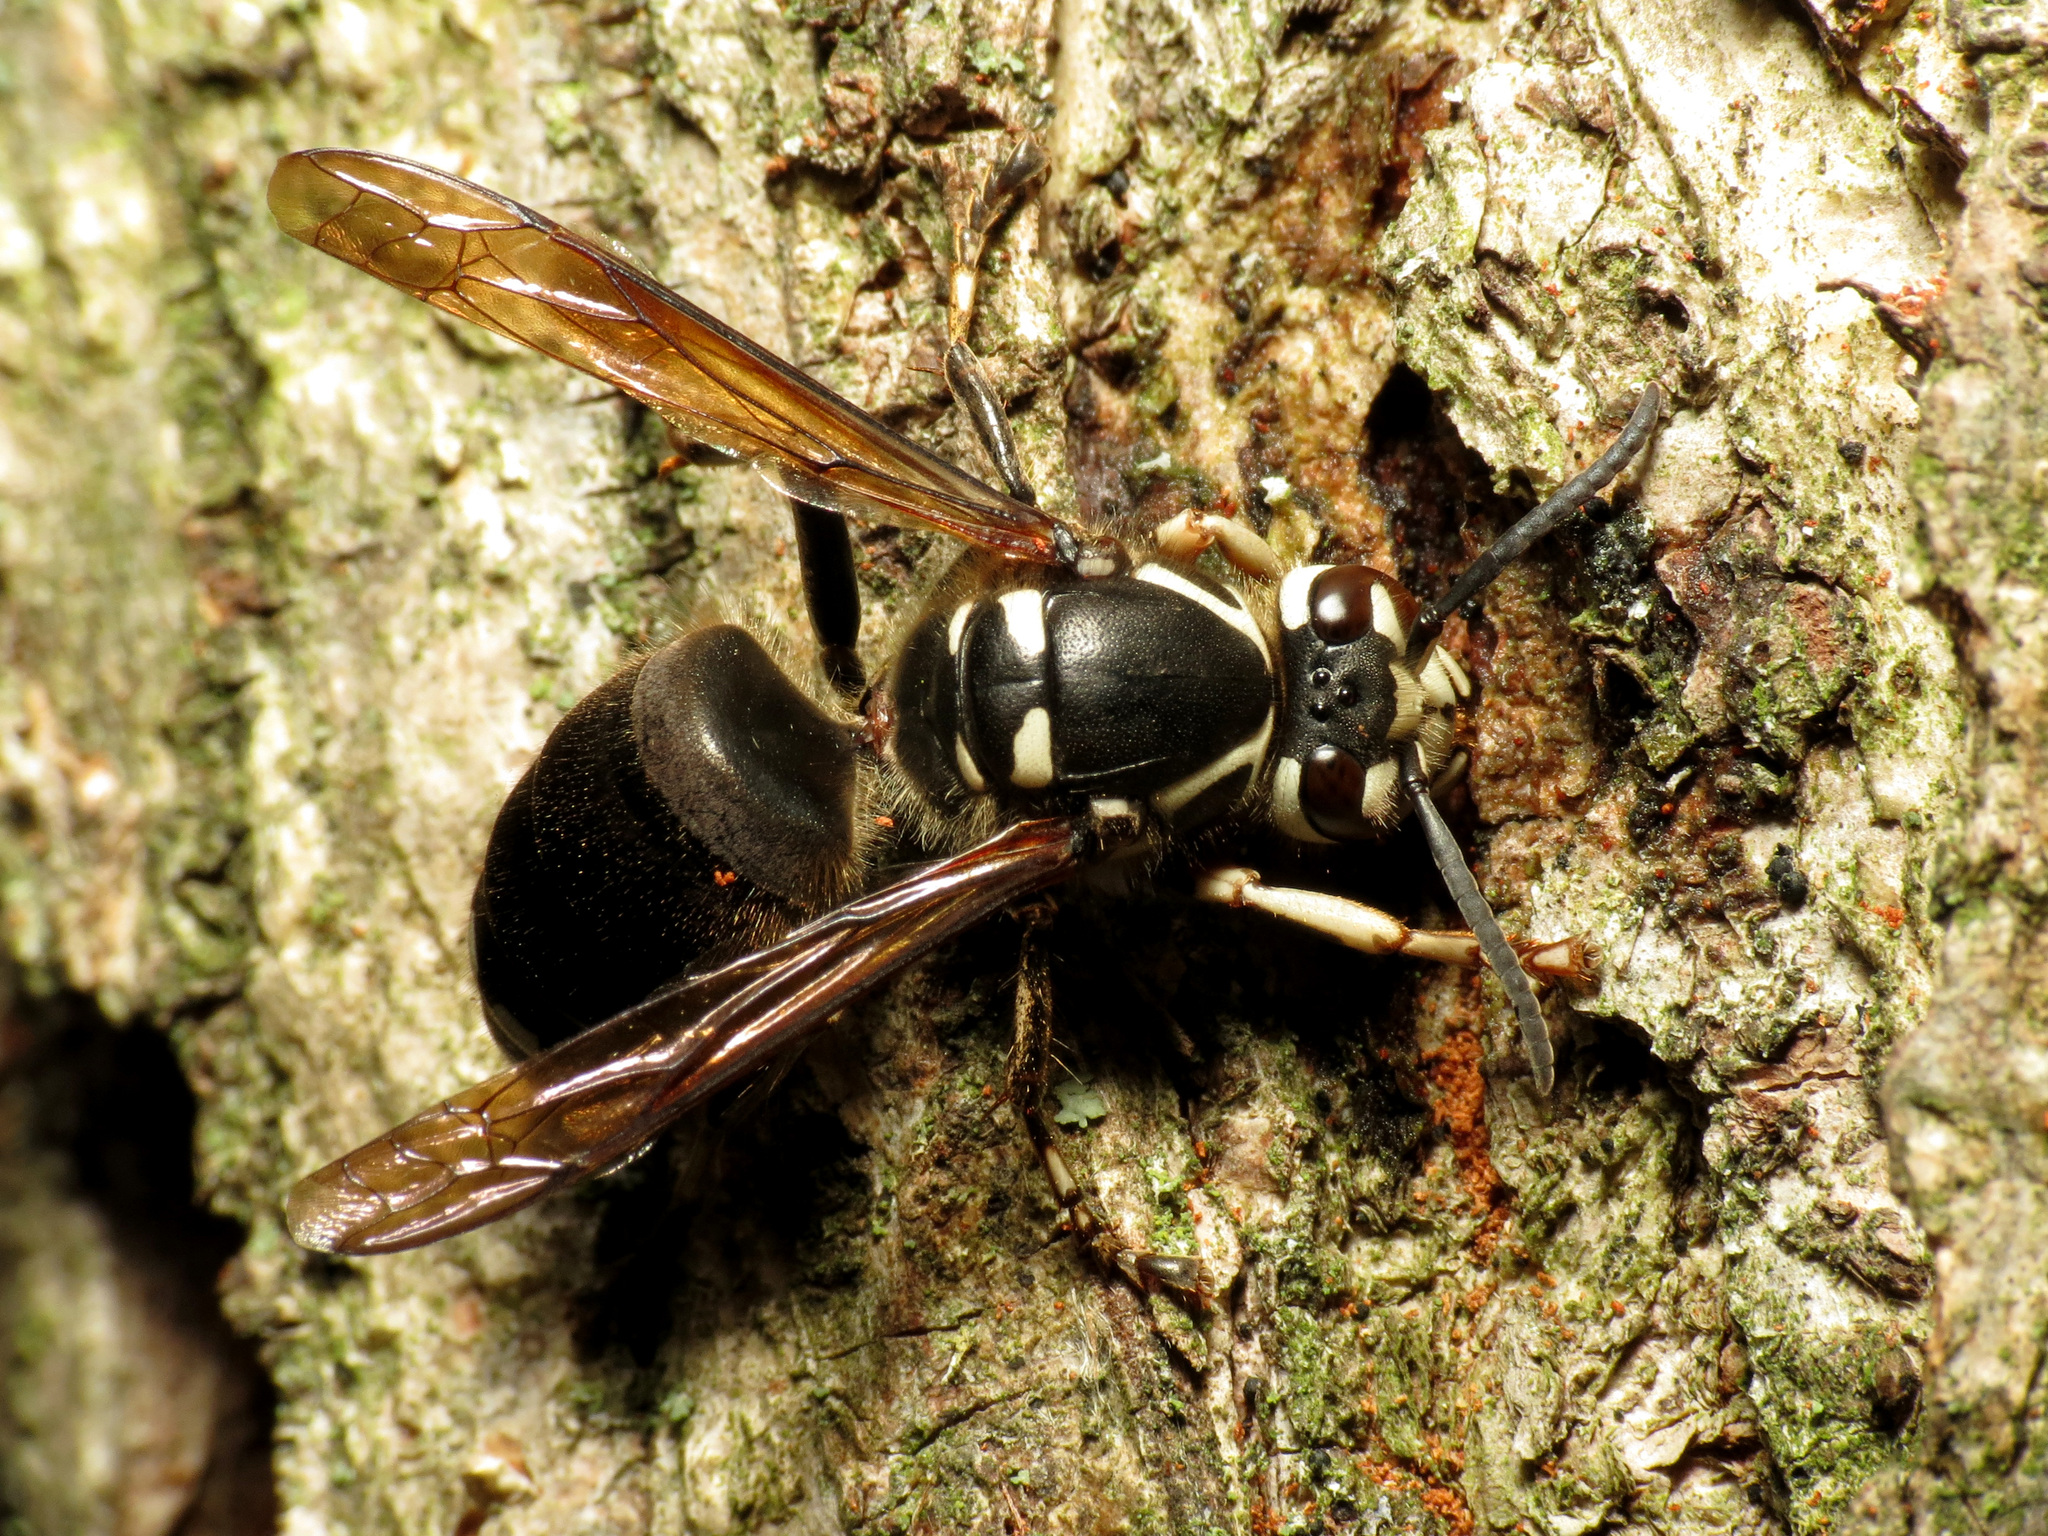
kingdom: Animalia
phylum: Arthropoda
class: Insecta
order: Hymenoptera
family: Vespidae
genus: Dolichovespula
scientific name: Dolichovespula maculata
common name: Bald-faced hornet
